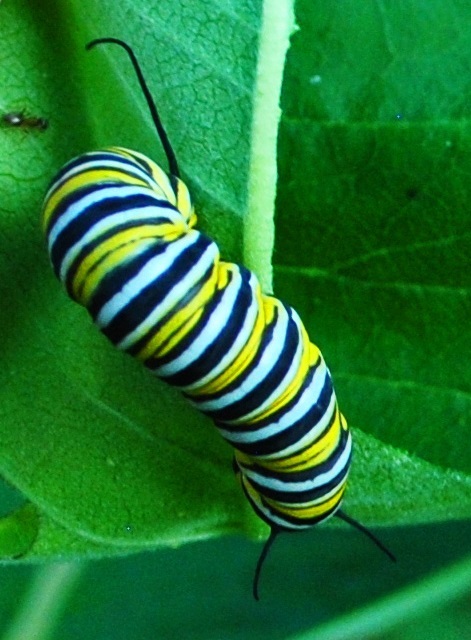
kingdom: Animalia
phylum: Arthropoda
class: Insecta
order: Lepidoptera
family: Nymphalidae
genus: Danaus
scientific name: Danaus plexippus
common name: Monarch
